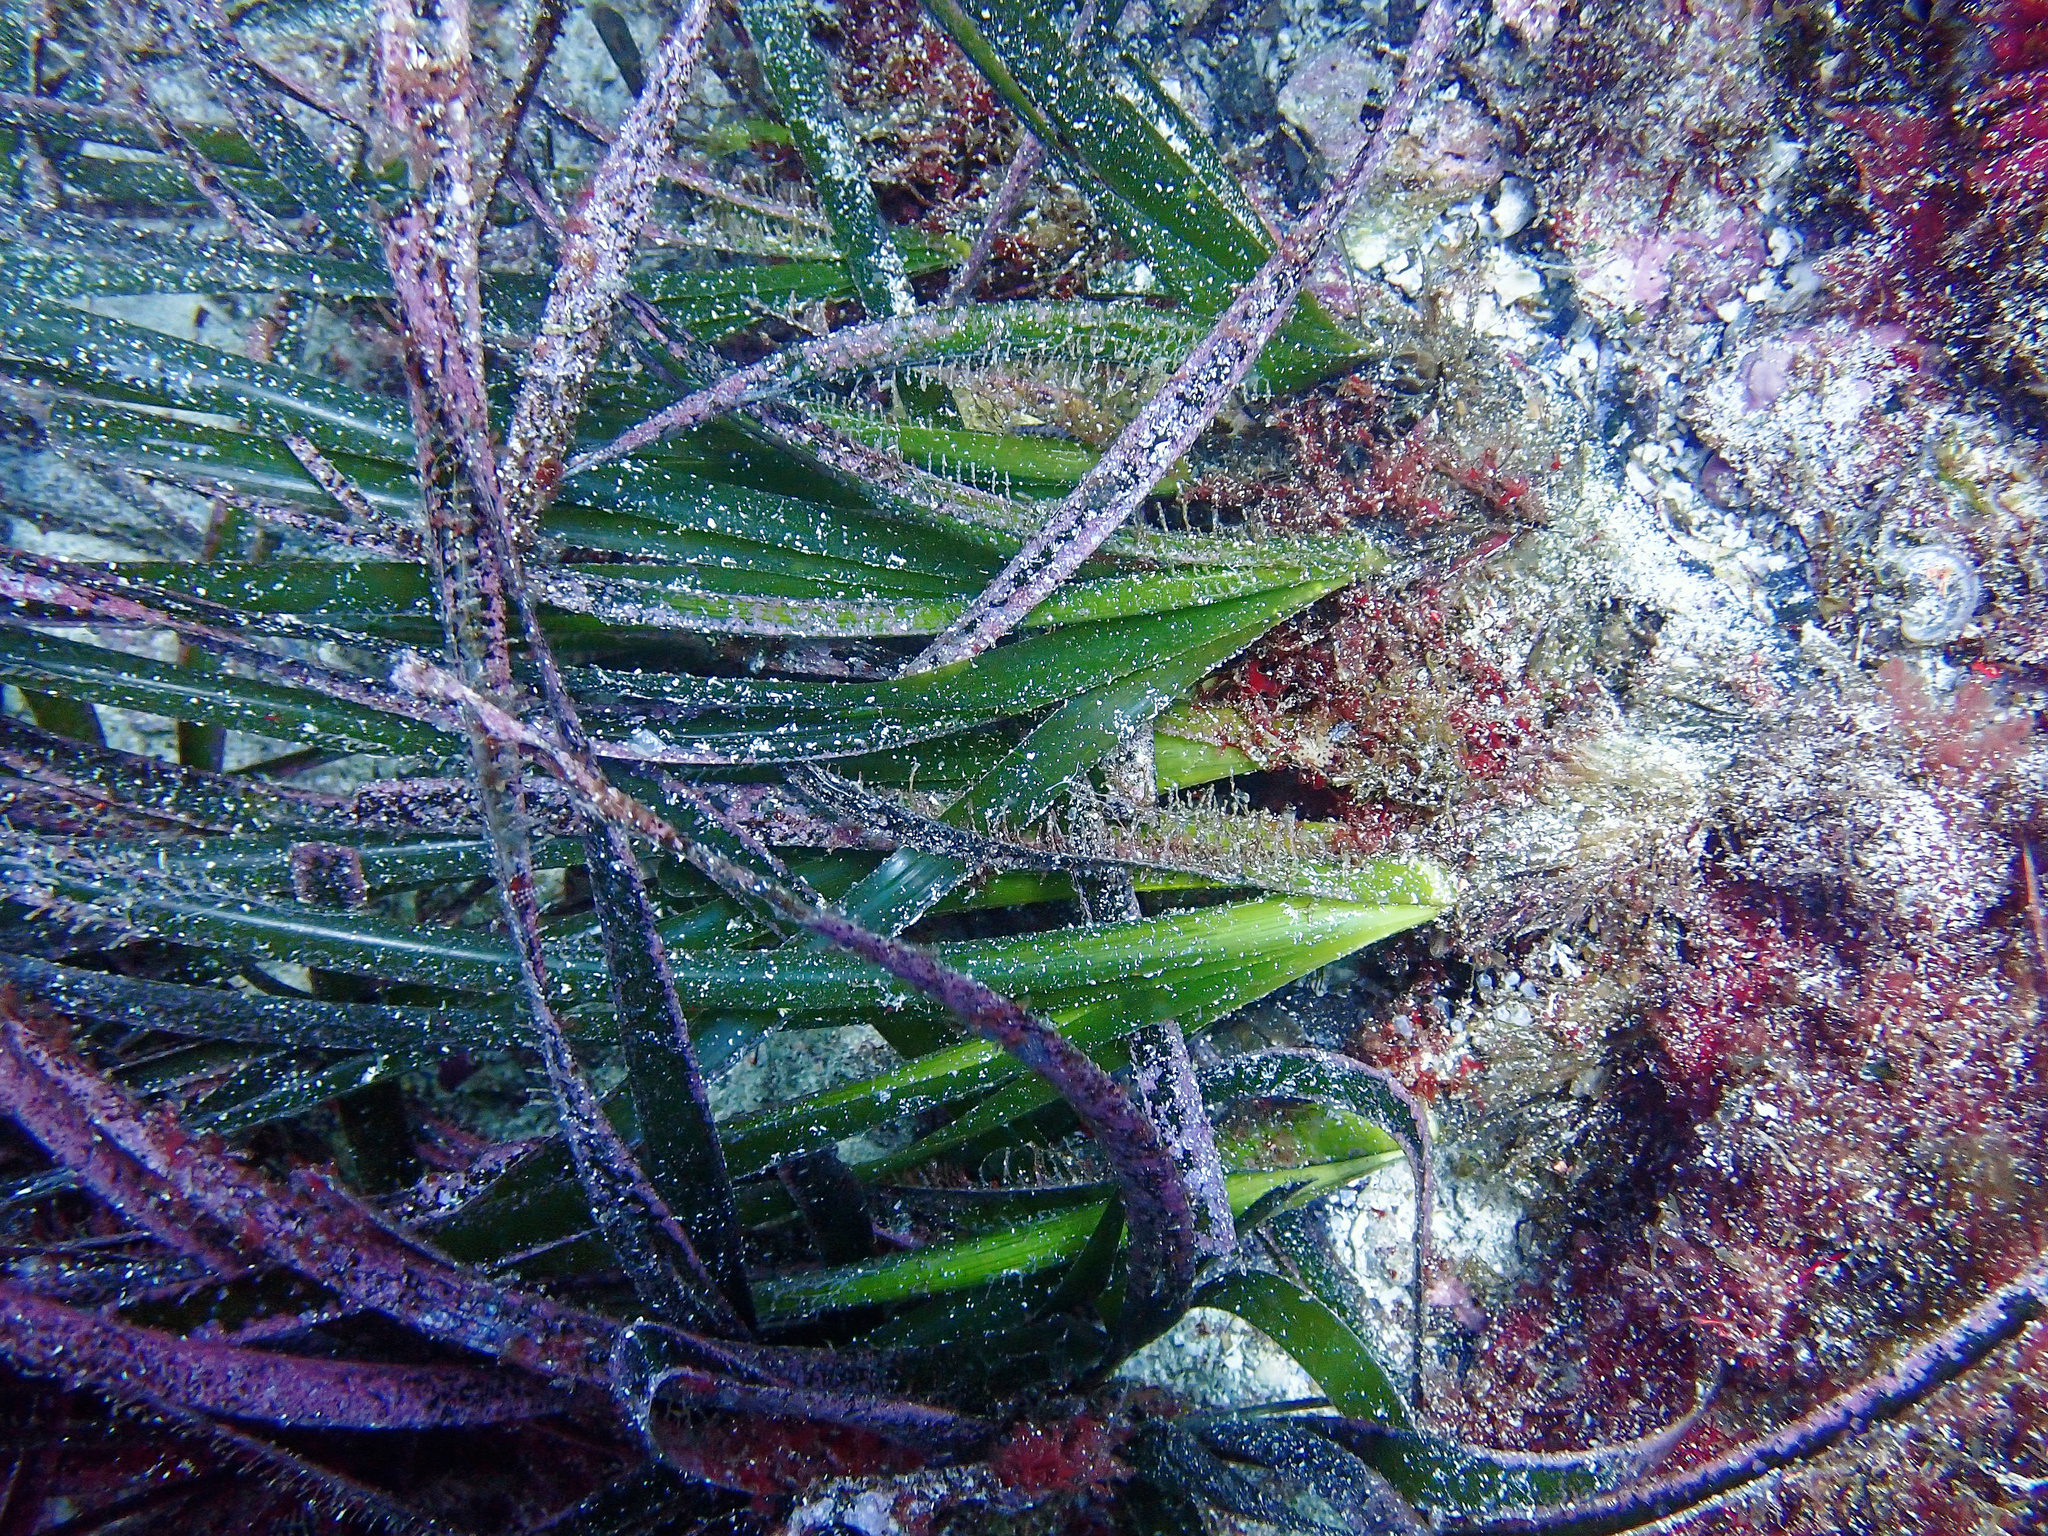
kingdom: Plantae
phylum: Tracheophyta
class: Liliopsida
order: Alismatales
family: Posidoniaceae
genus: Posidonia
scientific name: Posidonia oceanica
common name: Mediterranean tapeweed
